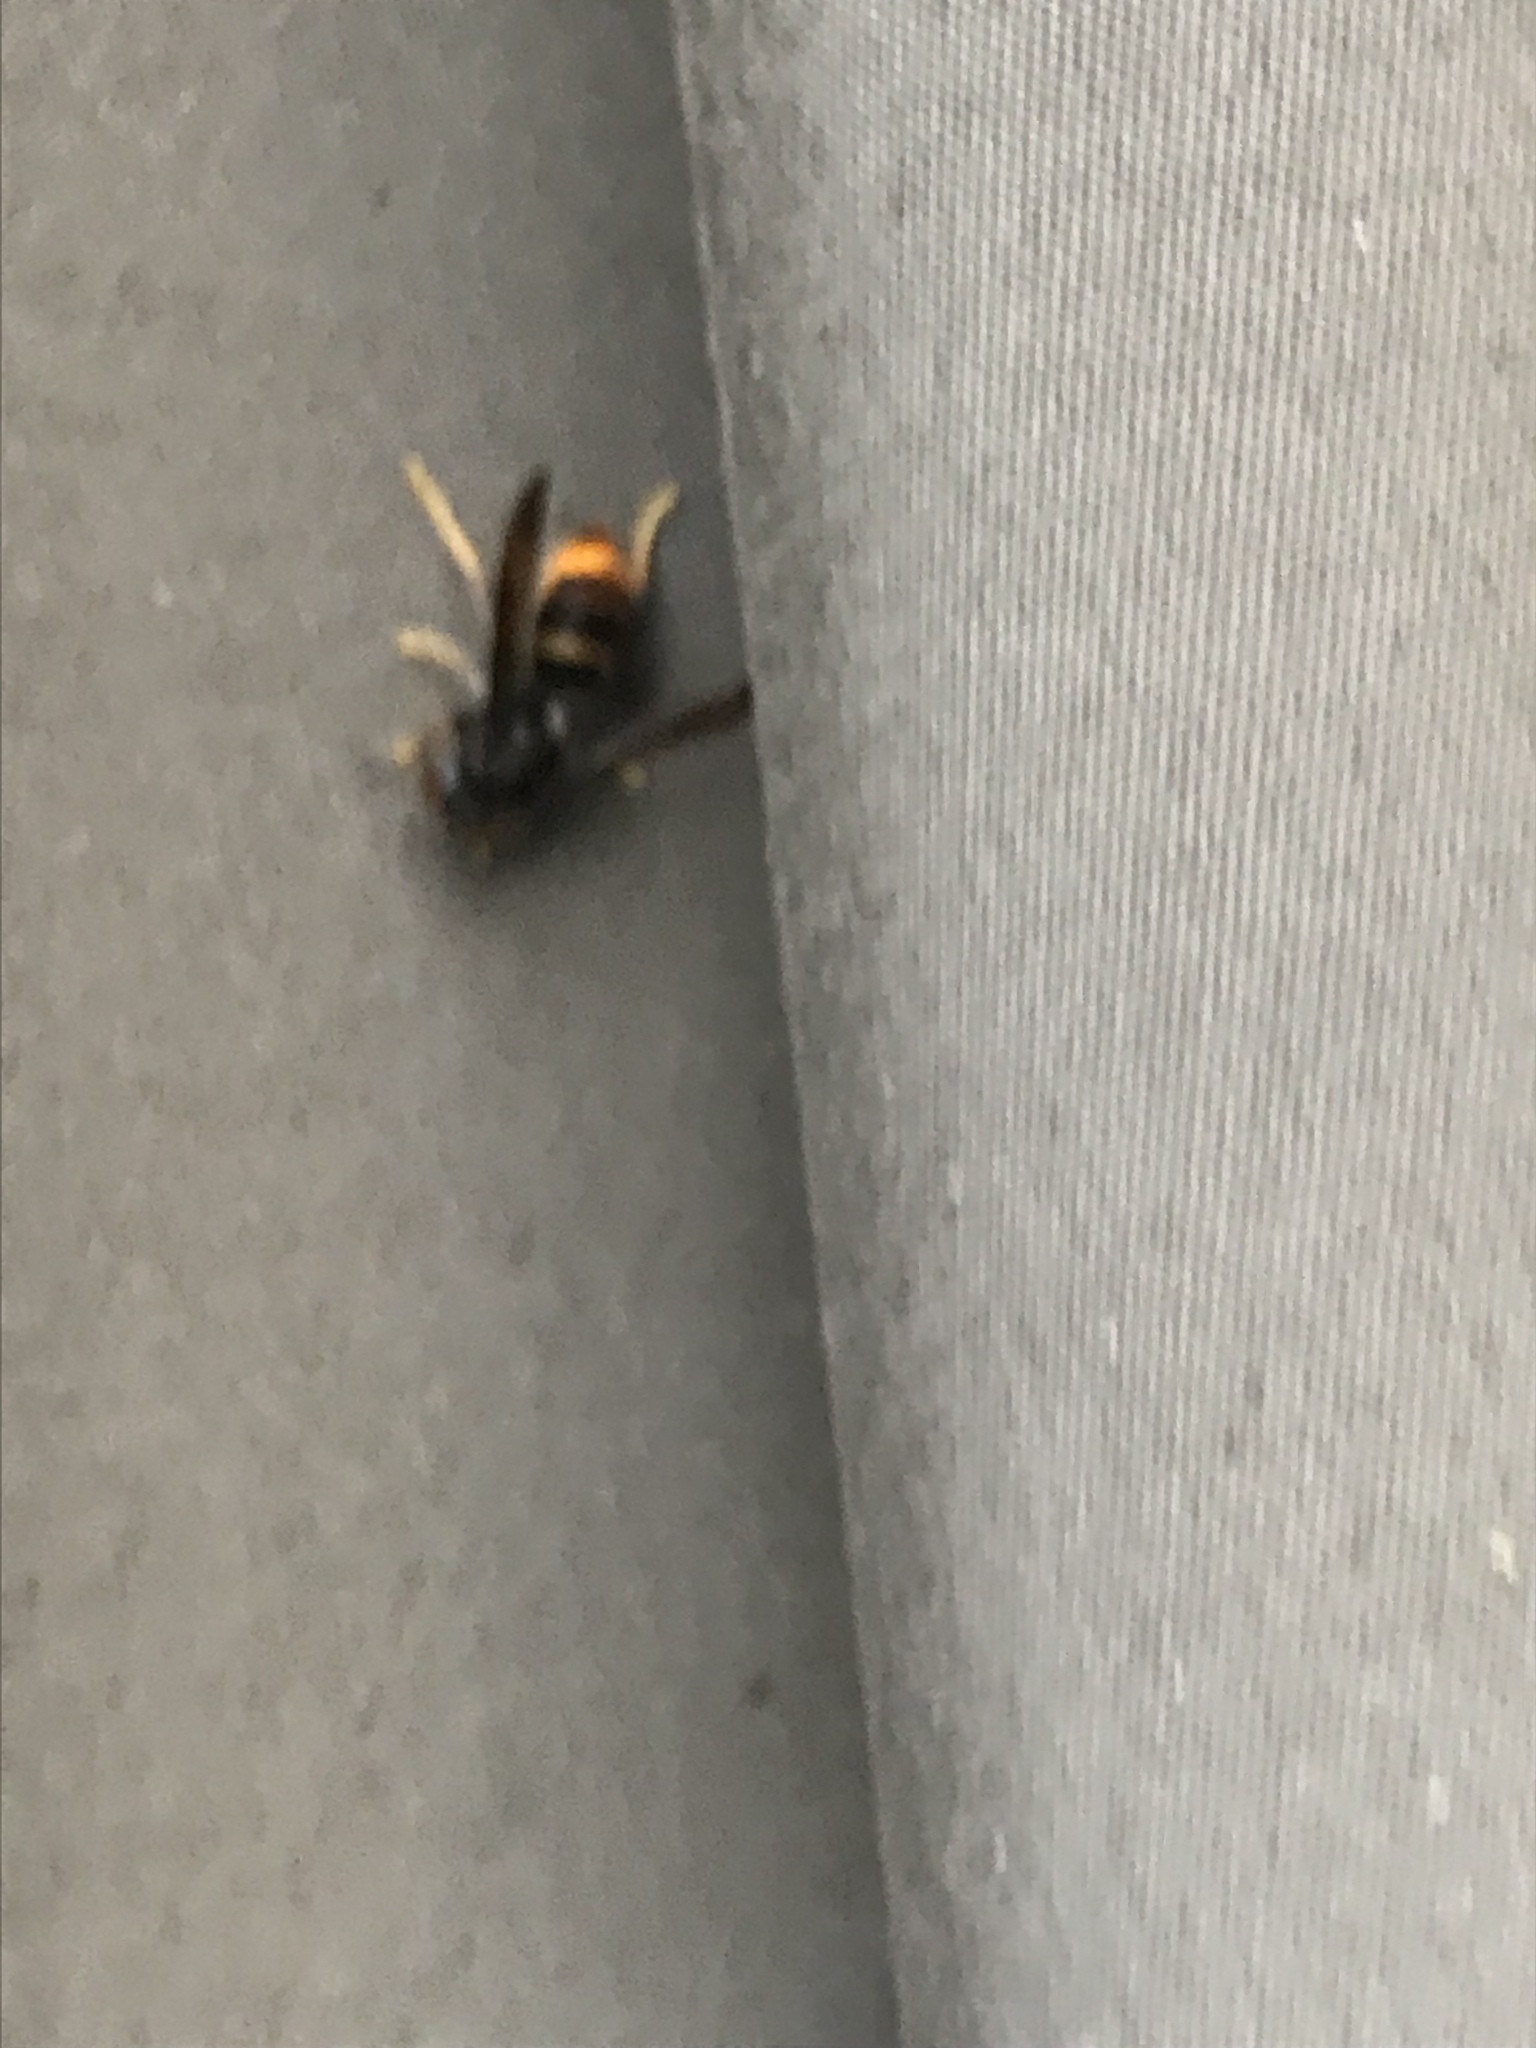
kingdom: Animalia
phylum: Arthropoda
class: Insecta
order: Hymenoptera
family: Vespidae
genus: Vespa
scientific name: Vespa velutina
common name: Asian hornet
